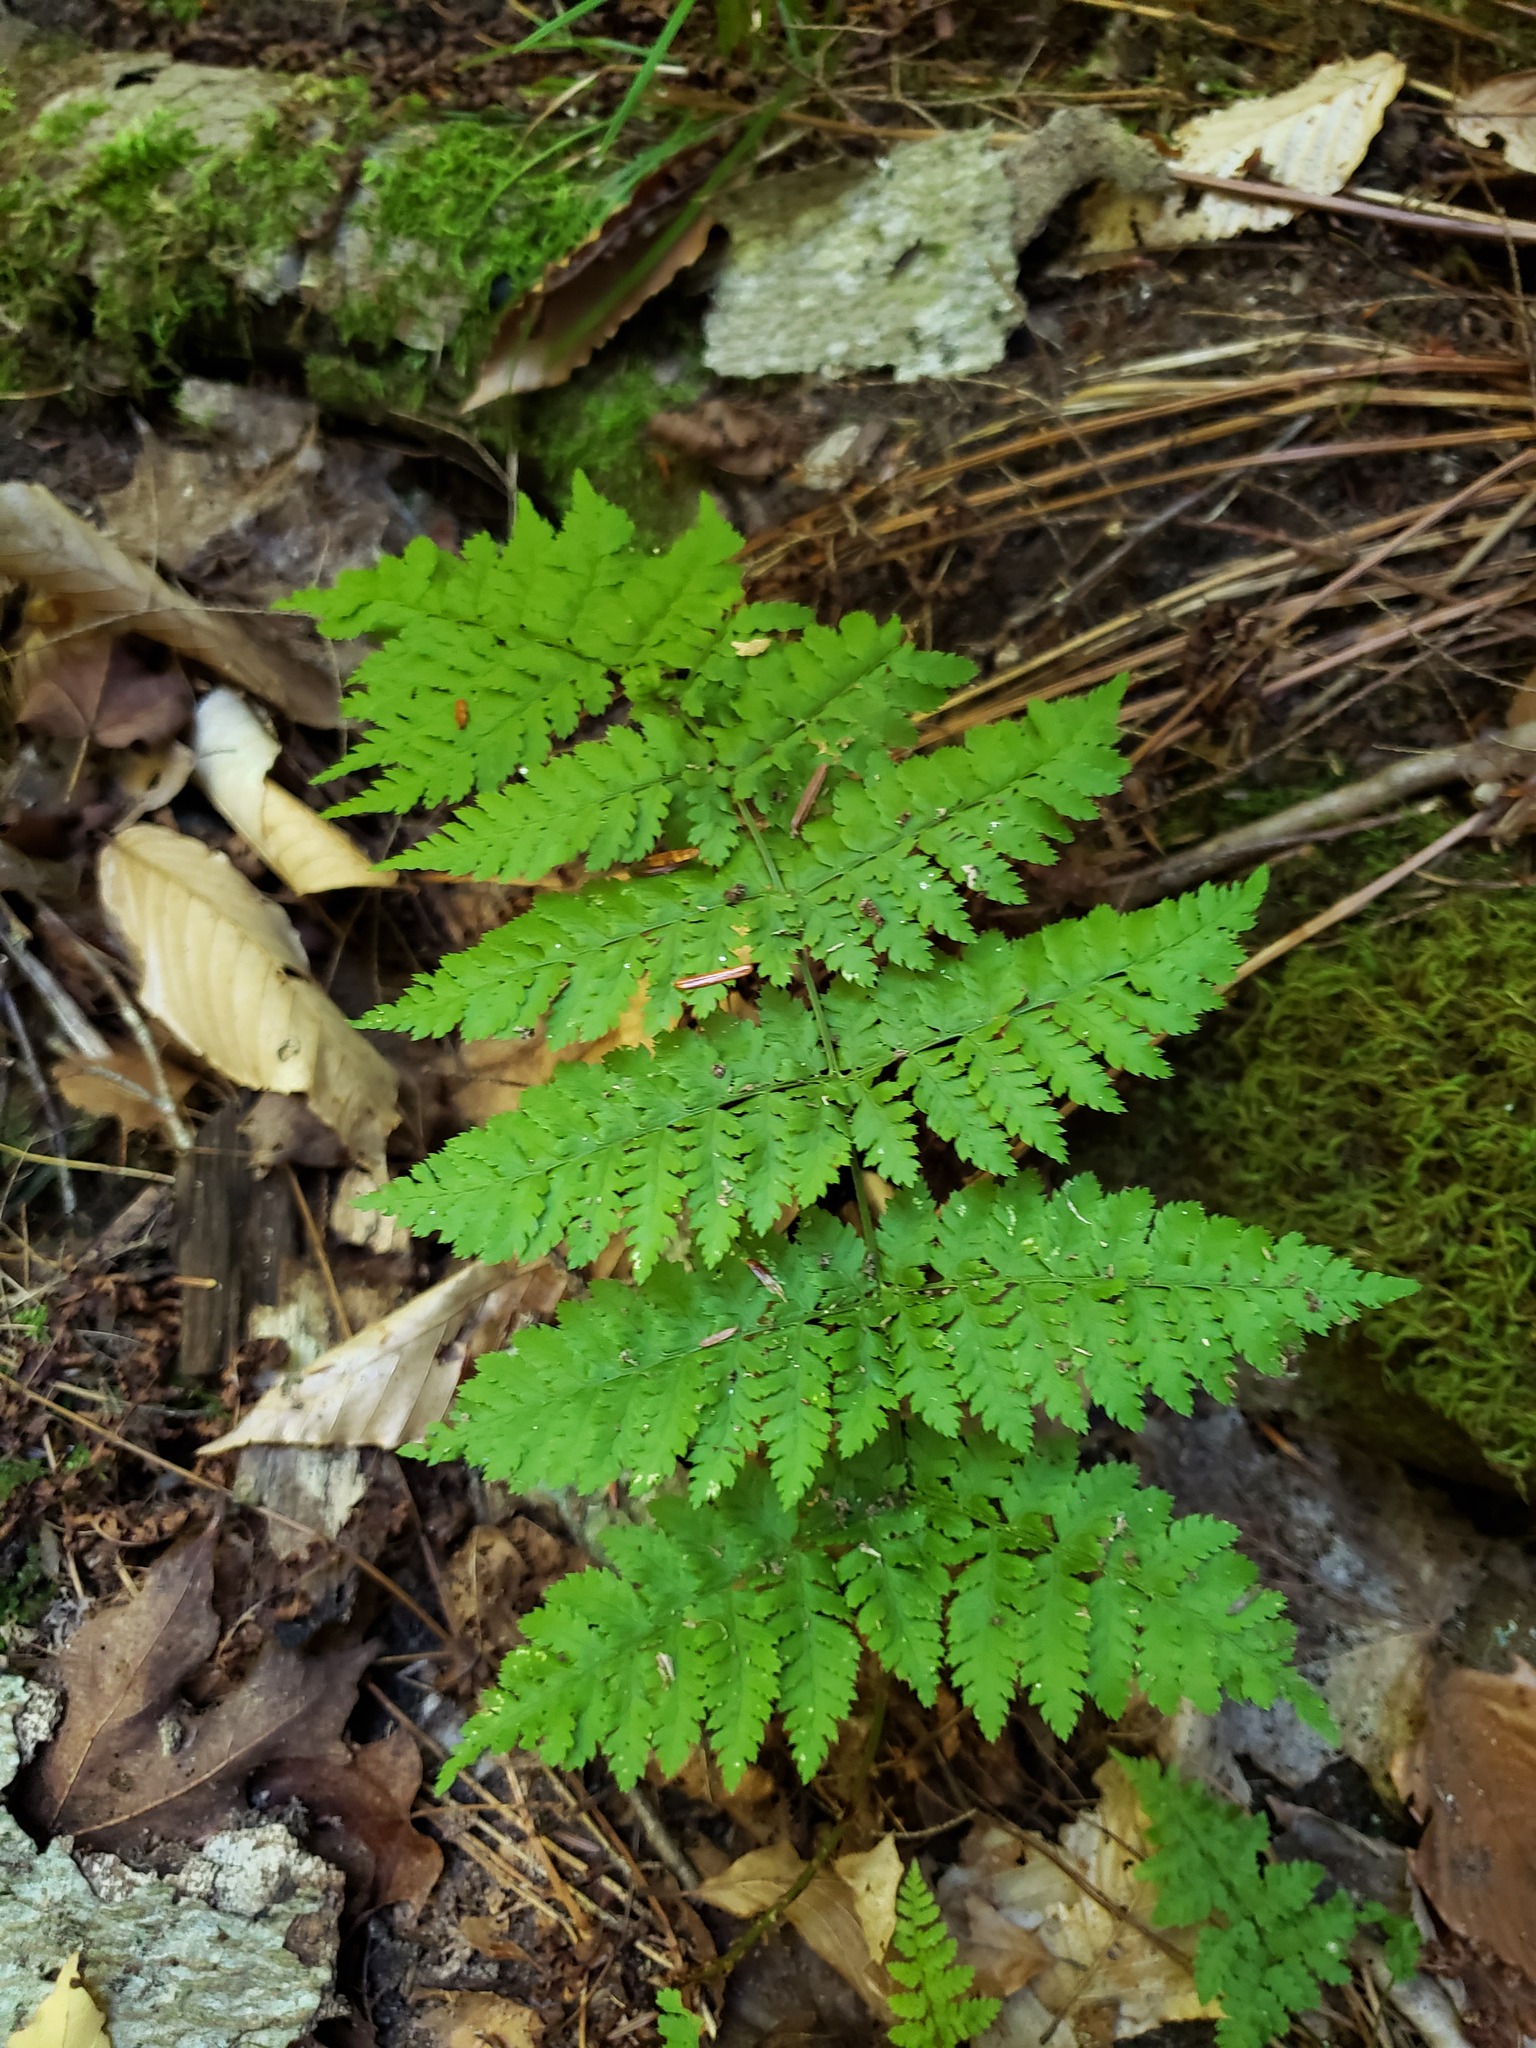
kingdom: Plantae
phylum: Tracheophyta
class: Polypodiopsida
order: Polypodiales
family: Dryopteridaceae
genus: Dryopteris
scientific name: Dryopteris intermedia
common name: Evergreen wood fern
